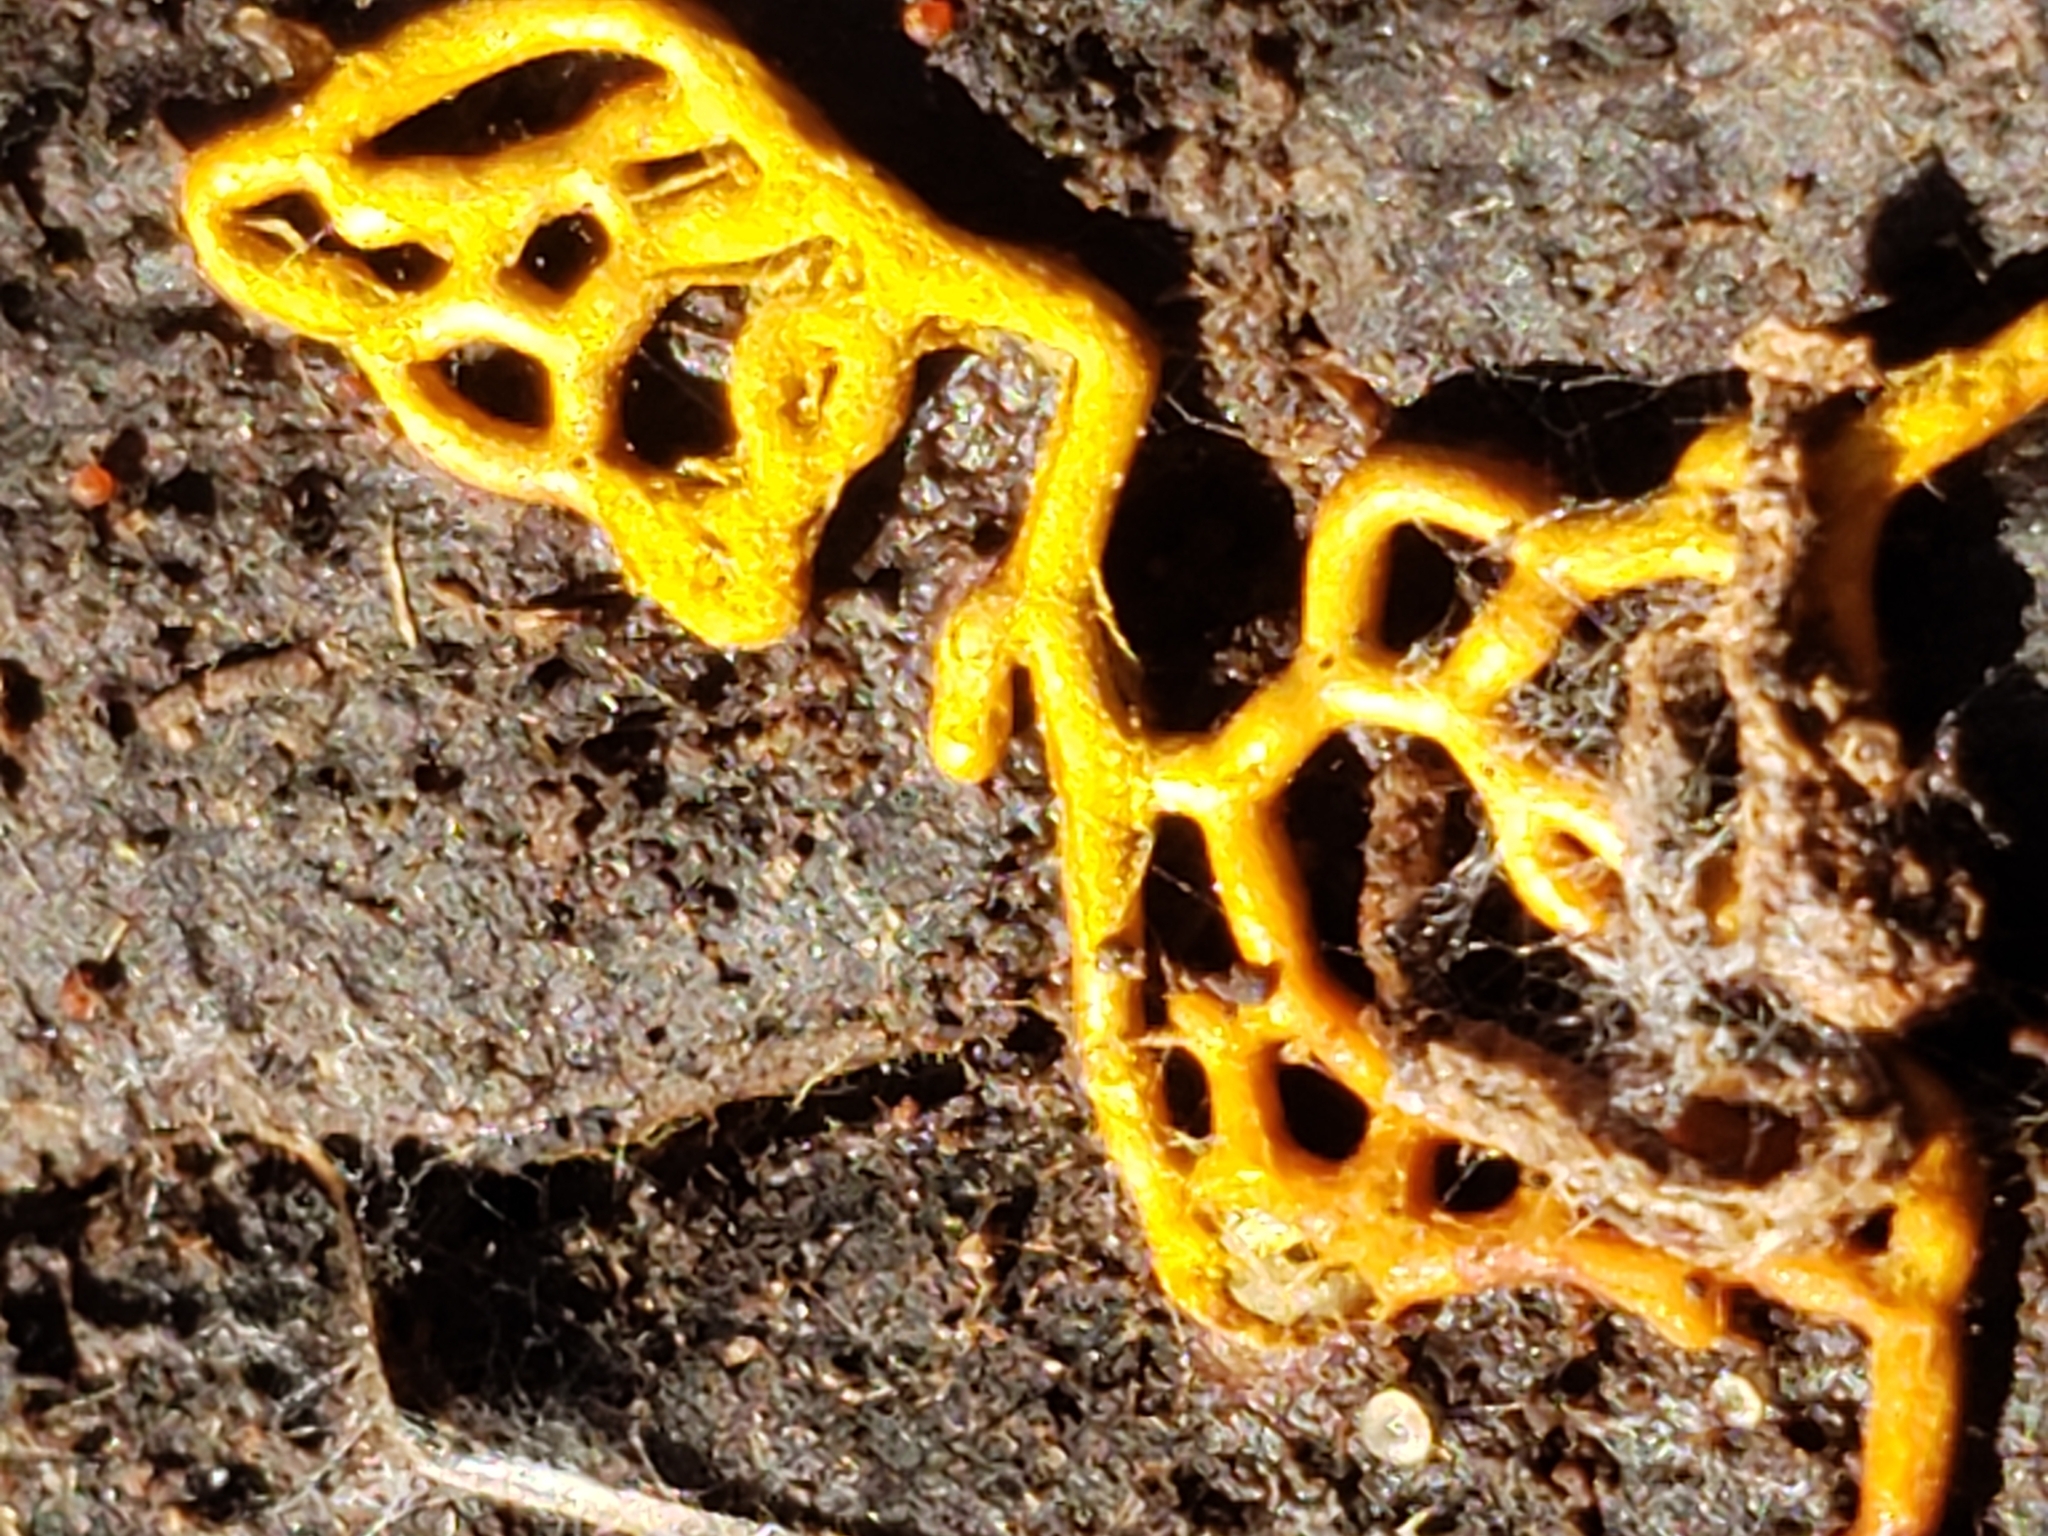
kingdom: Protozoa
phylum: Mycetozoa
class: Myxomycetes
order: Trichiales
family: Arcyriaceae
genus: Hemitrichia
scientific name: Hemitrichia serpula
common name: Pretzel slime mold
